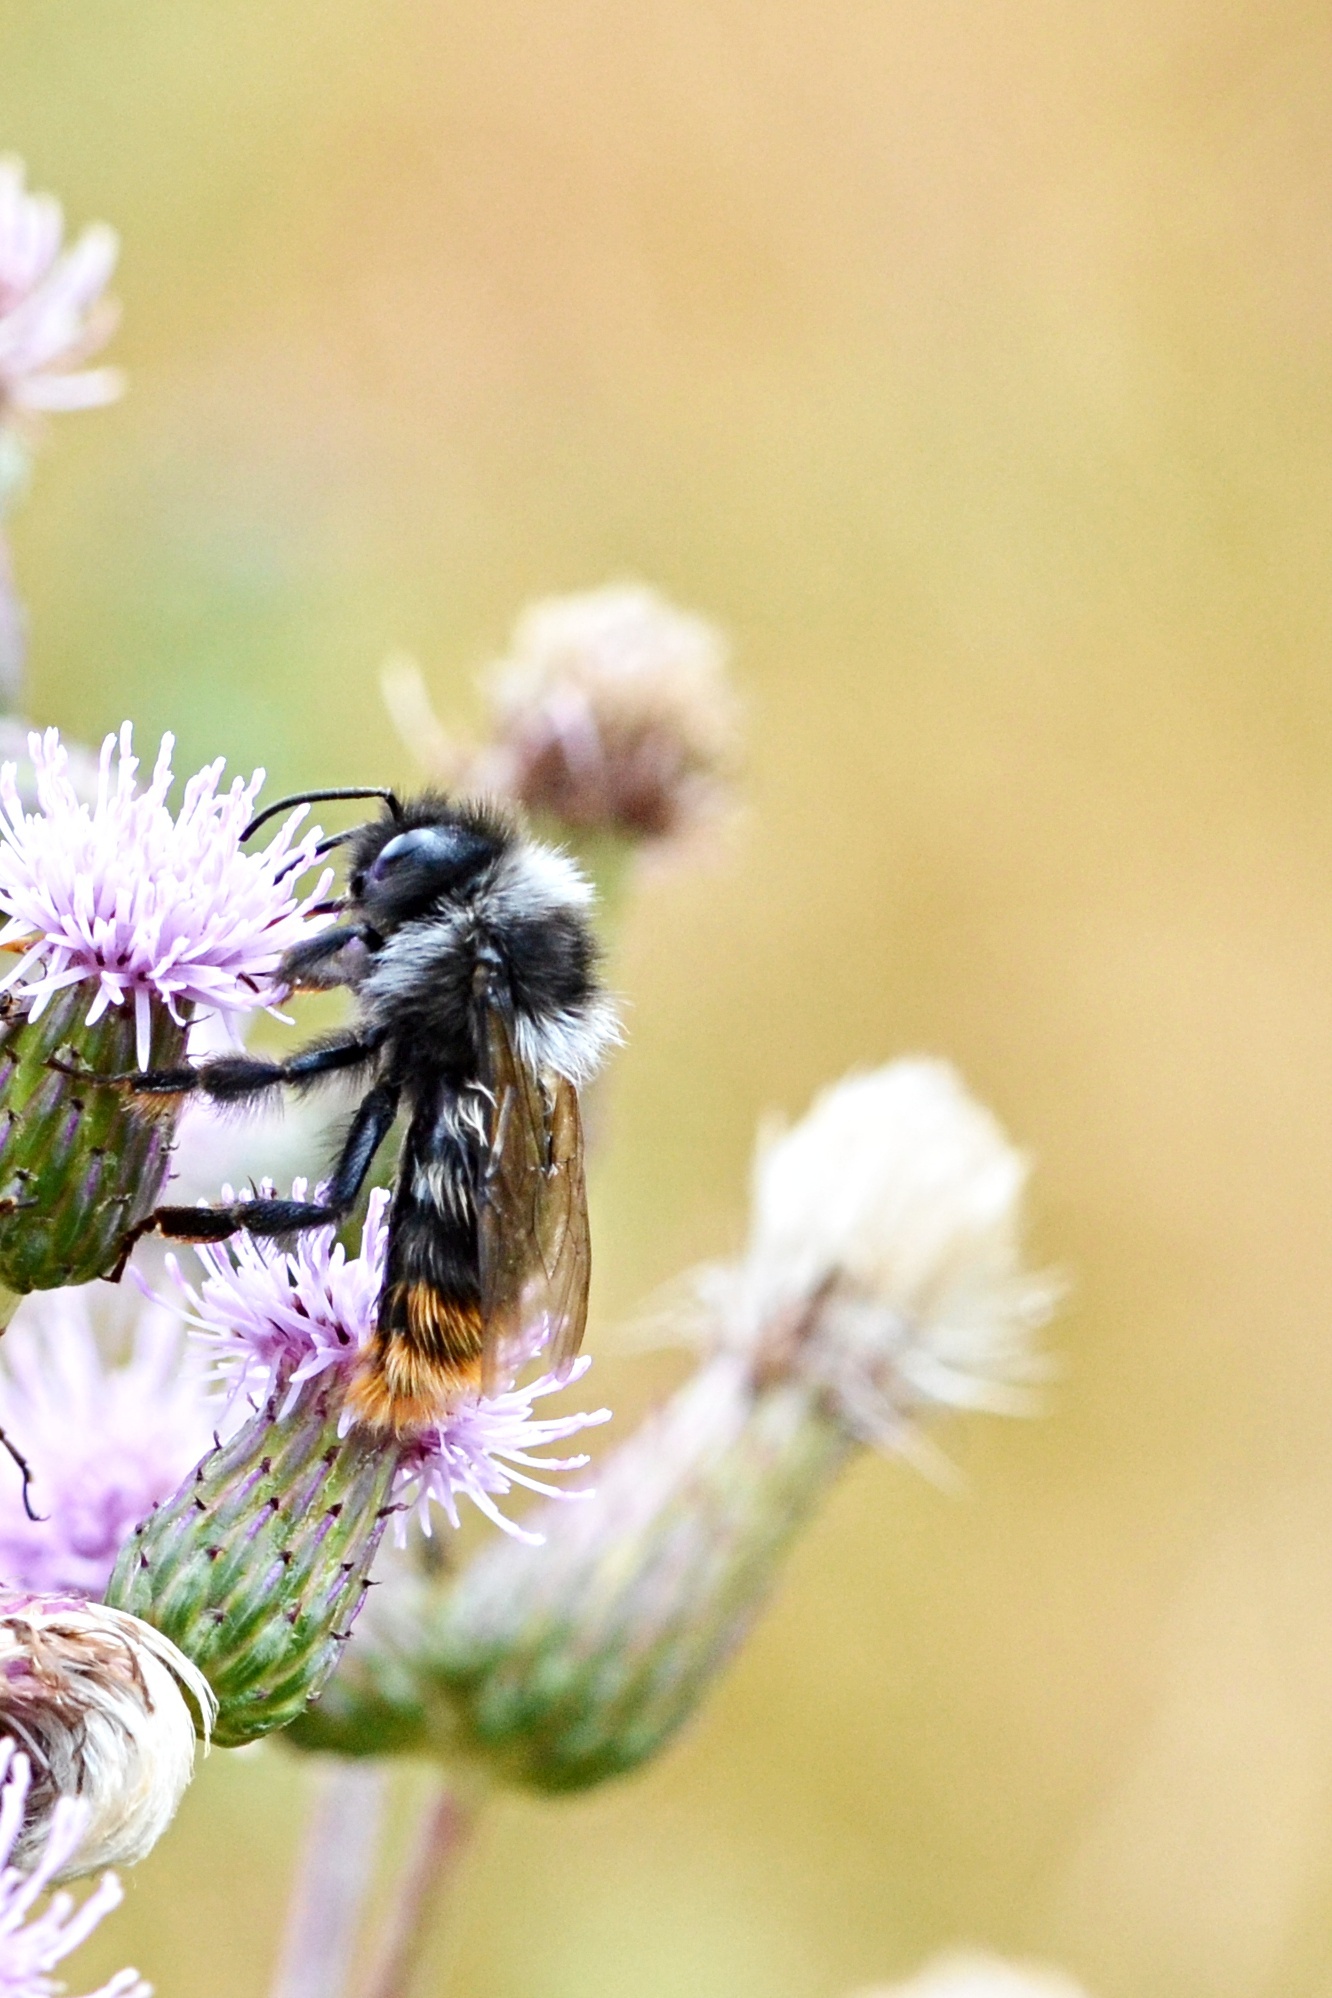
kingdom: Animalia
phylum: Arthropoda
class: Insecta
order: Hymenoptera
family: Apidae
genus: Bombus
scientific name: Bombus rupestris
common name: Hill cuckoo-bee
